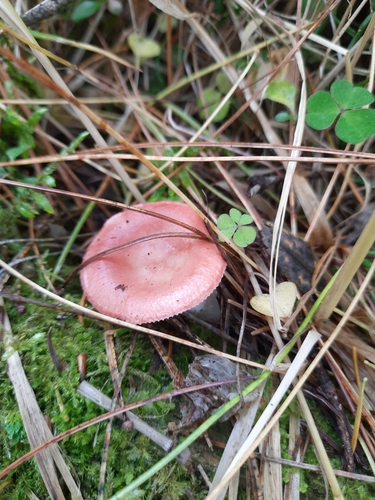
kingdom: Fungi
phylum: Basidiomycota
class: Agaricomycetes
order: Russulales
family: Russulaceae
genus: Russula
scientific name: Russula
